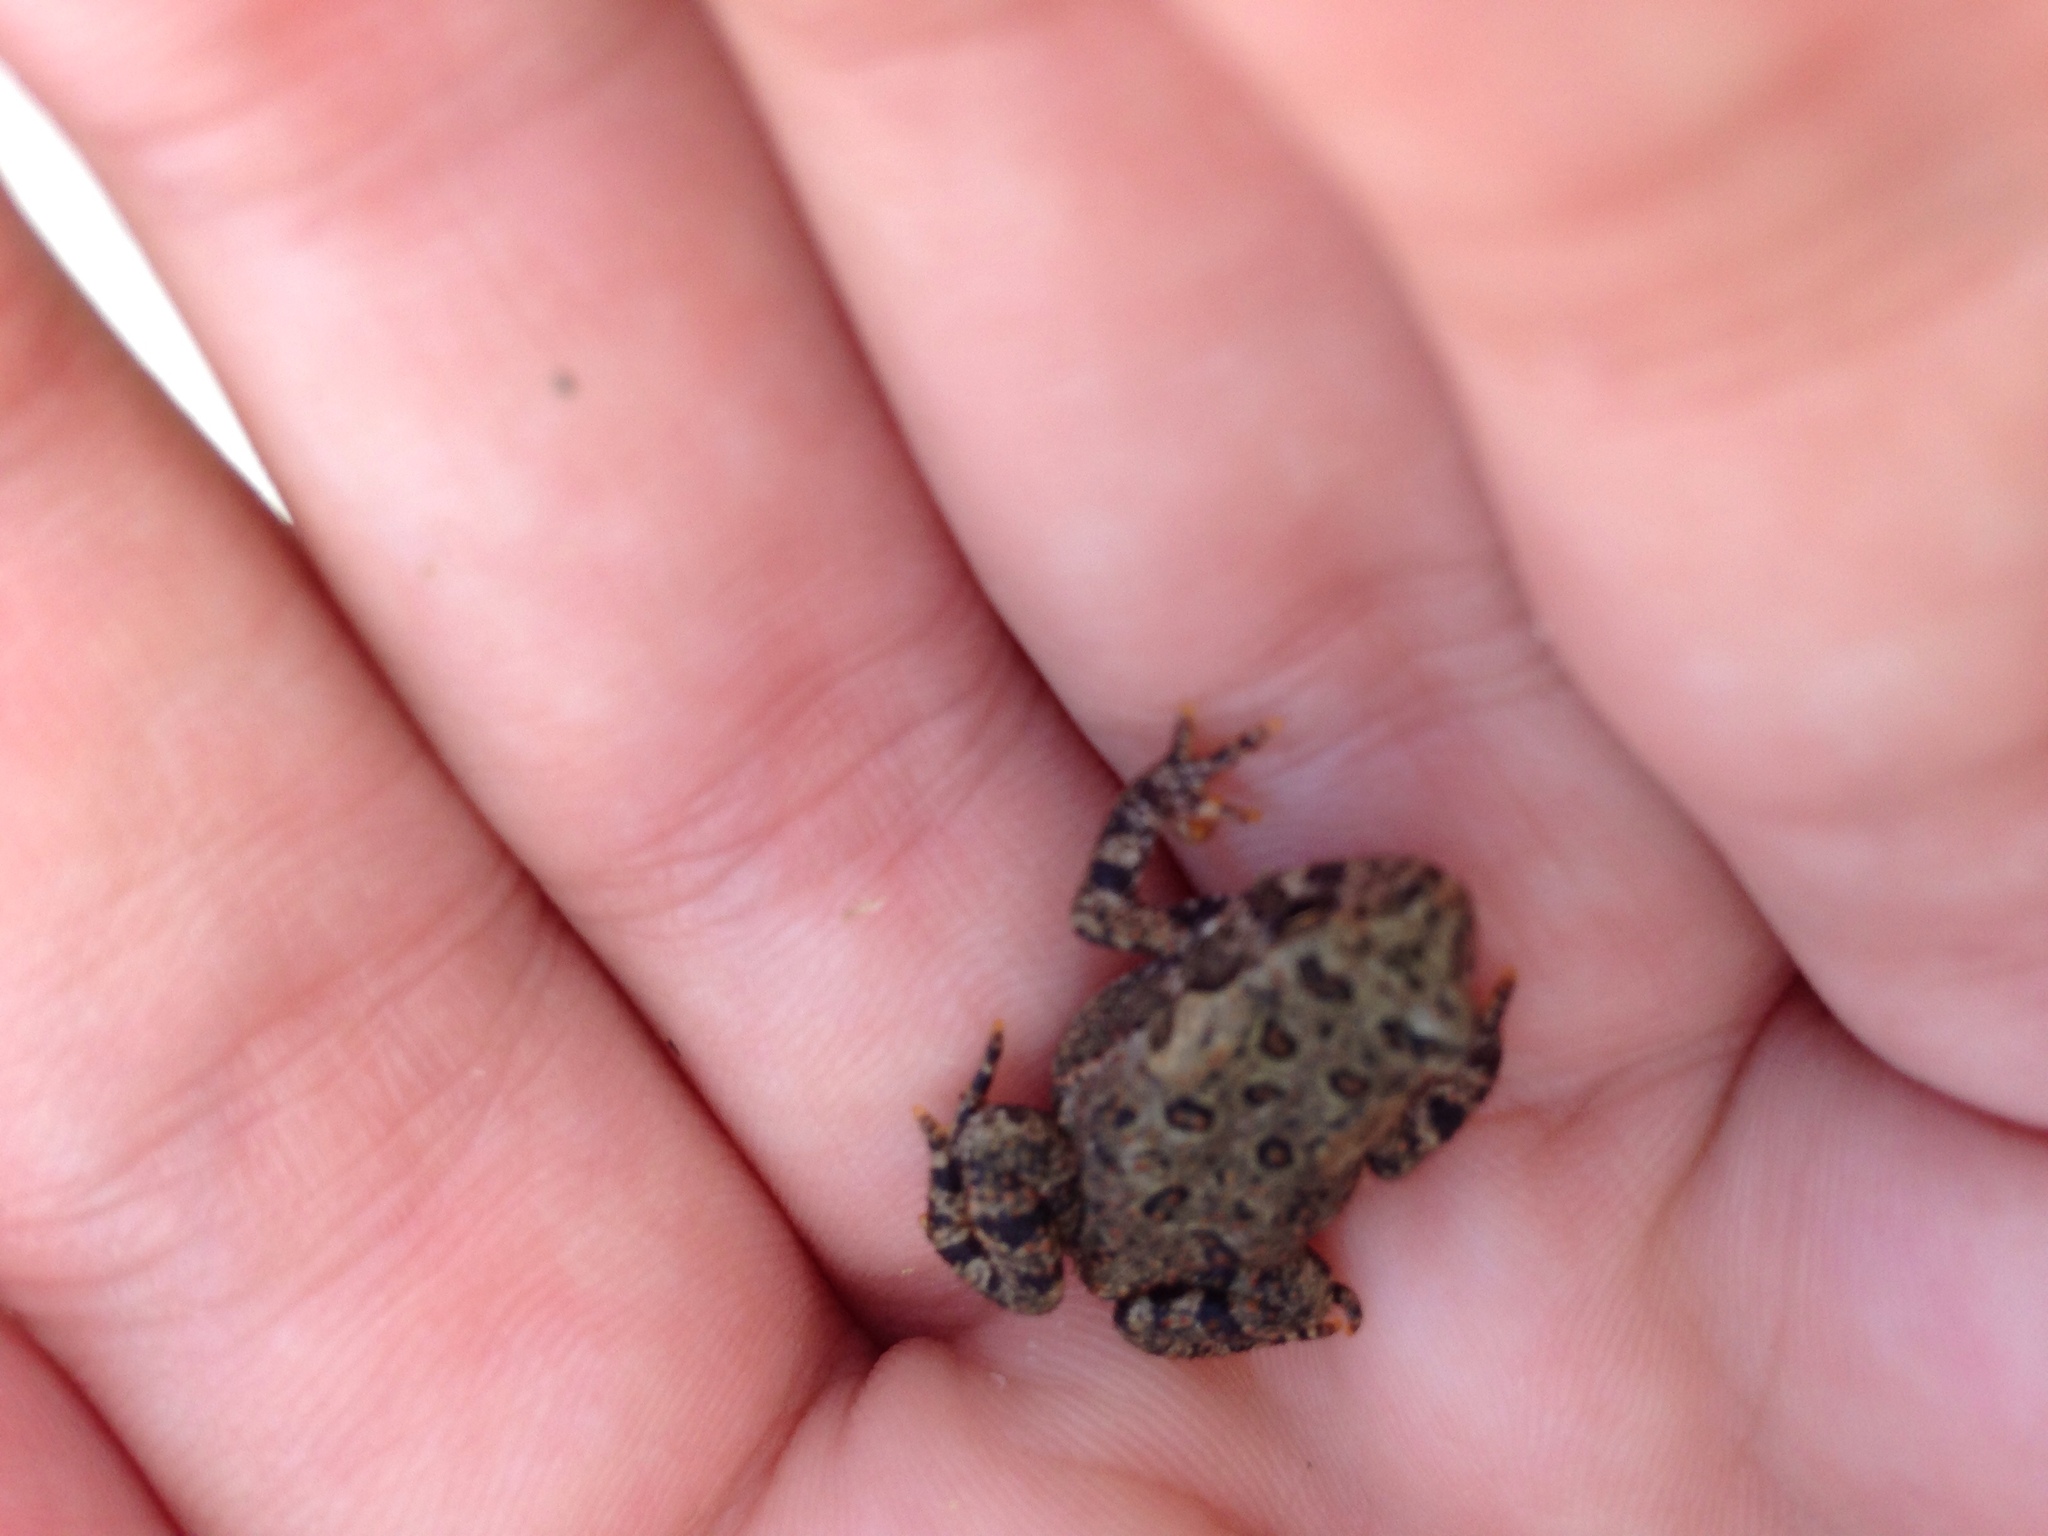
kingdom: Animalia
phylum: Chordata
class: Amphibia
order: Anura
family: Bufonidae
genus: Anaxyrus
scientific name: Anaxyrus americanus
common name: American toad
